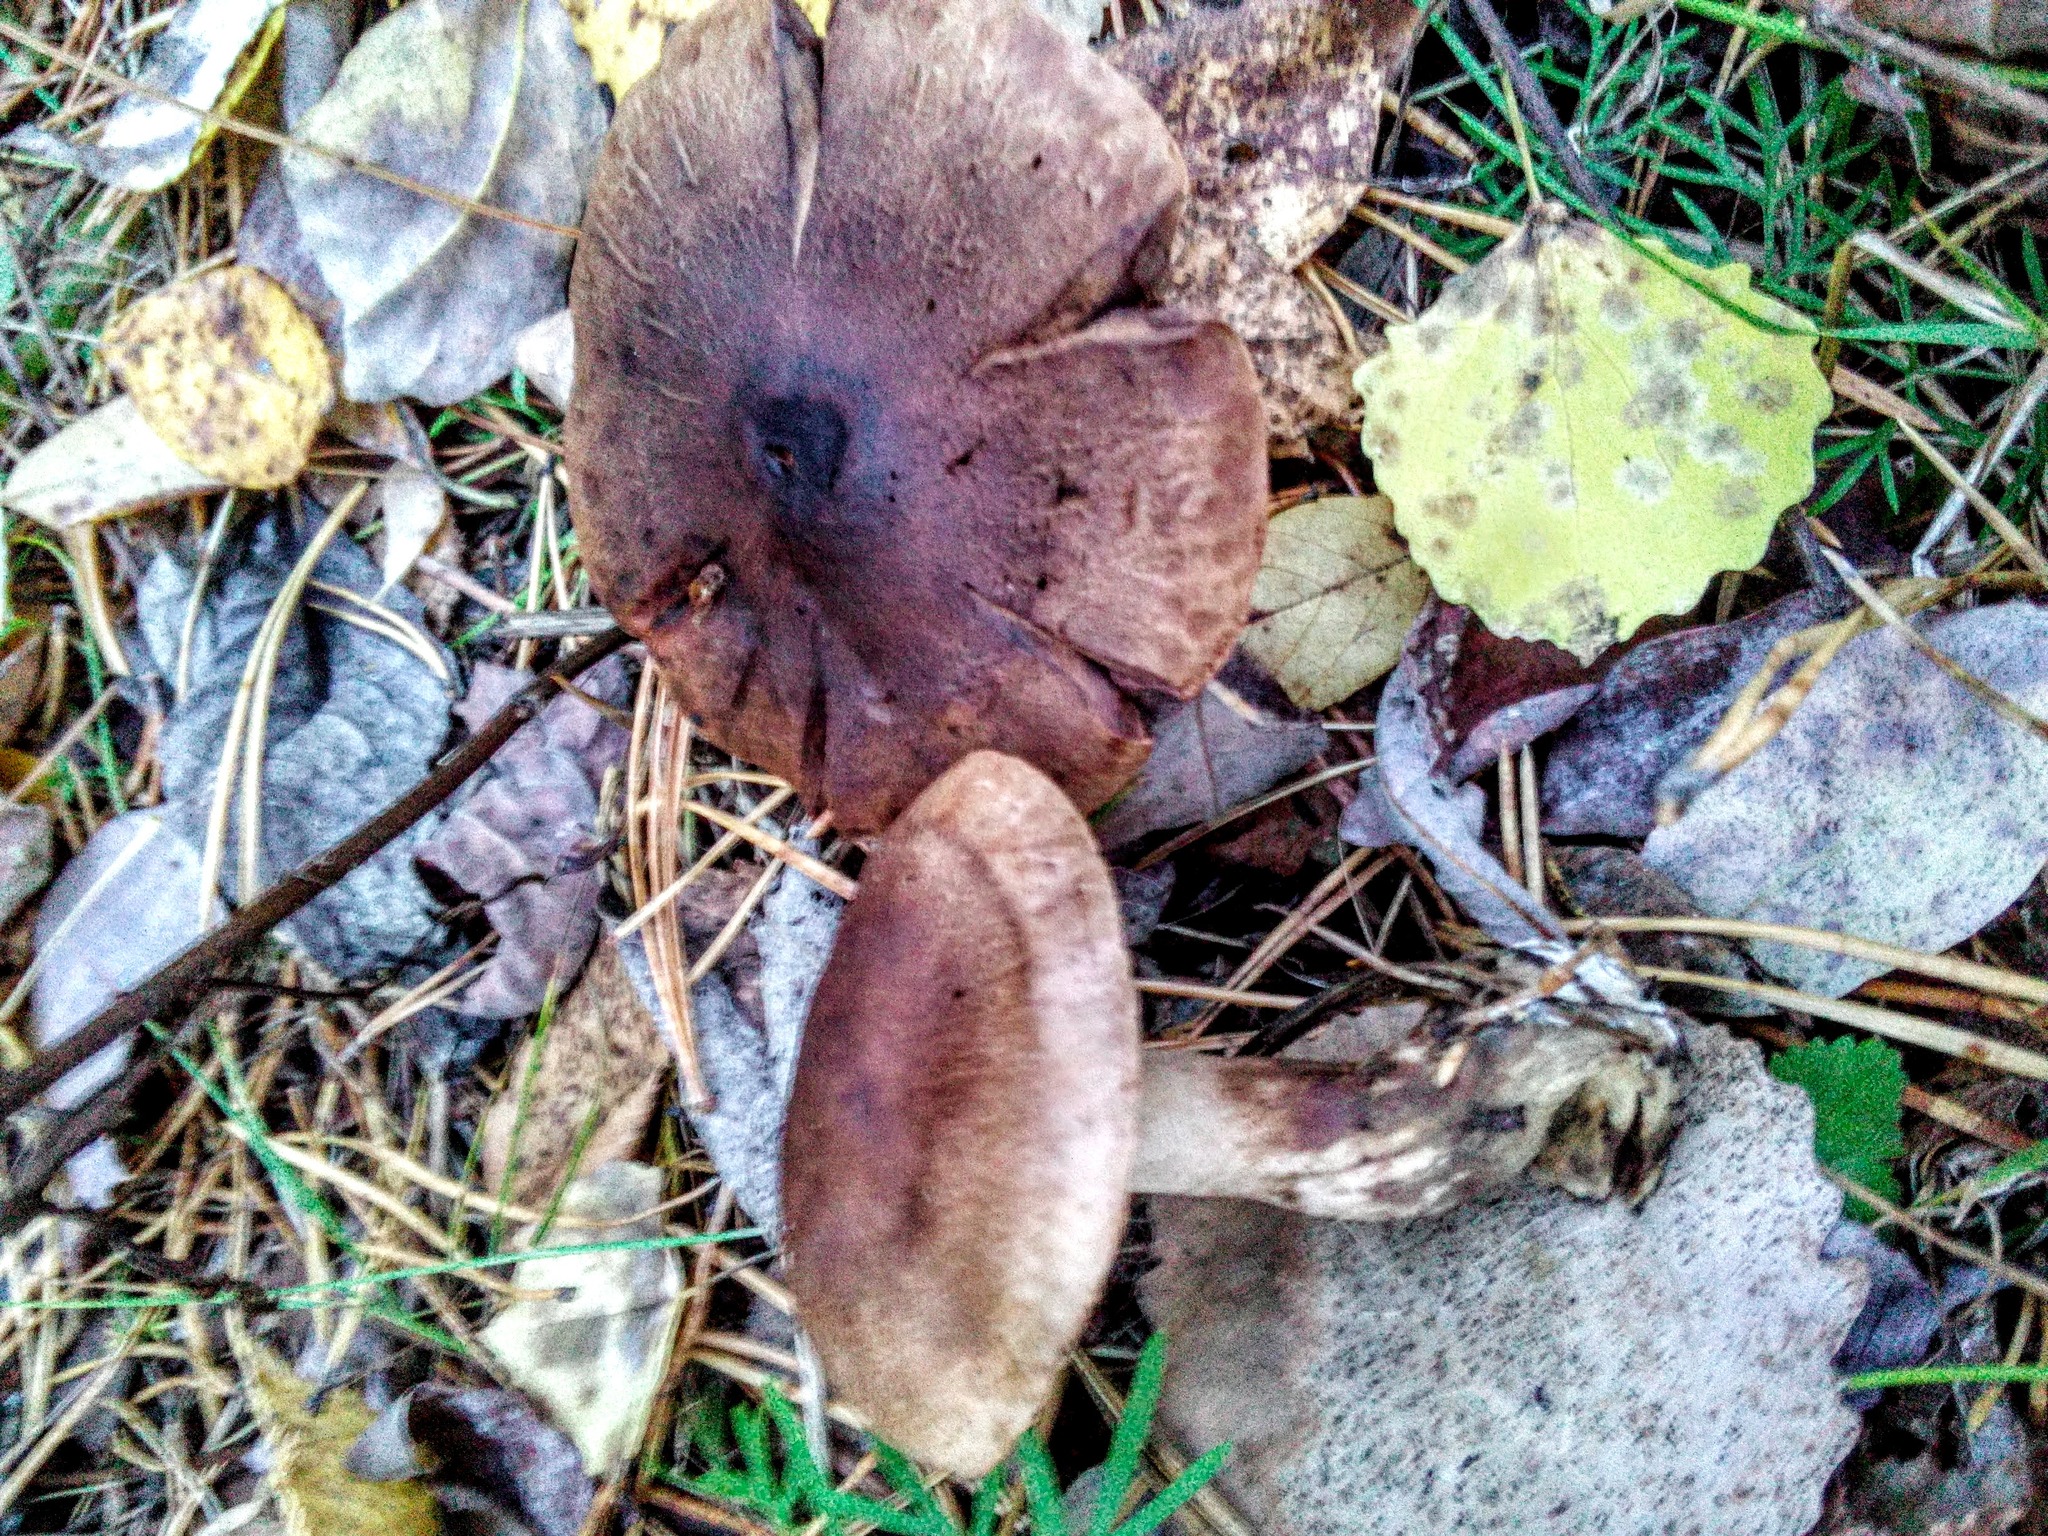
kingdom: Fungi
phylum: Basidiomycota
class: Agaricomycetes
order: Agaricales
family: Tricholomataceae
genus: Tricholoma
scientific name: Tricholoma fulvum
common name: Birch knight
